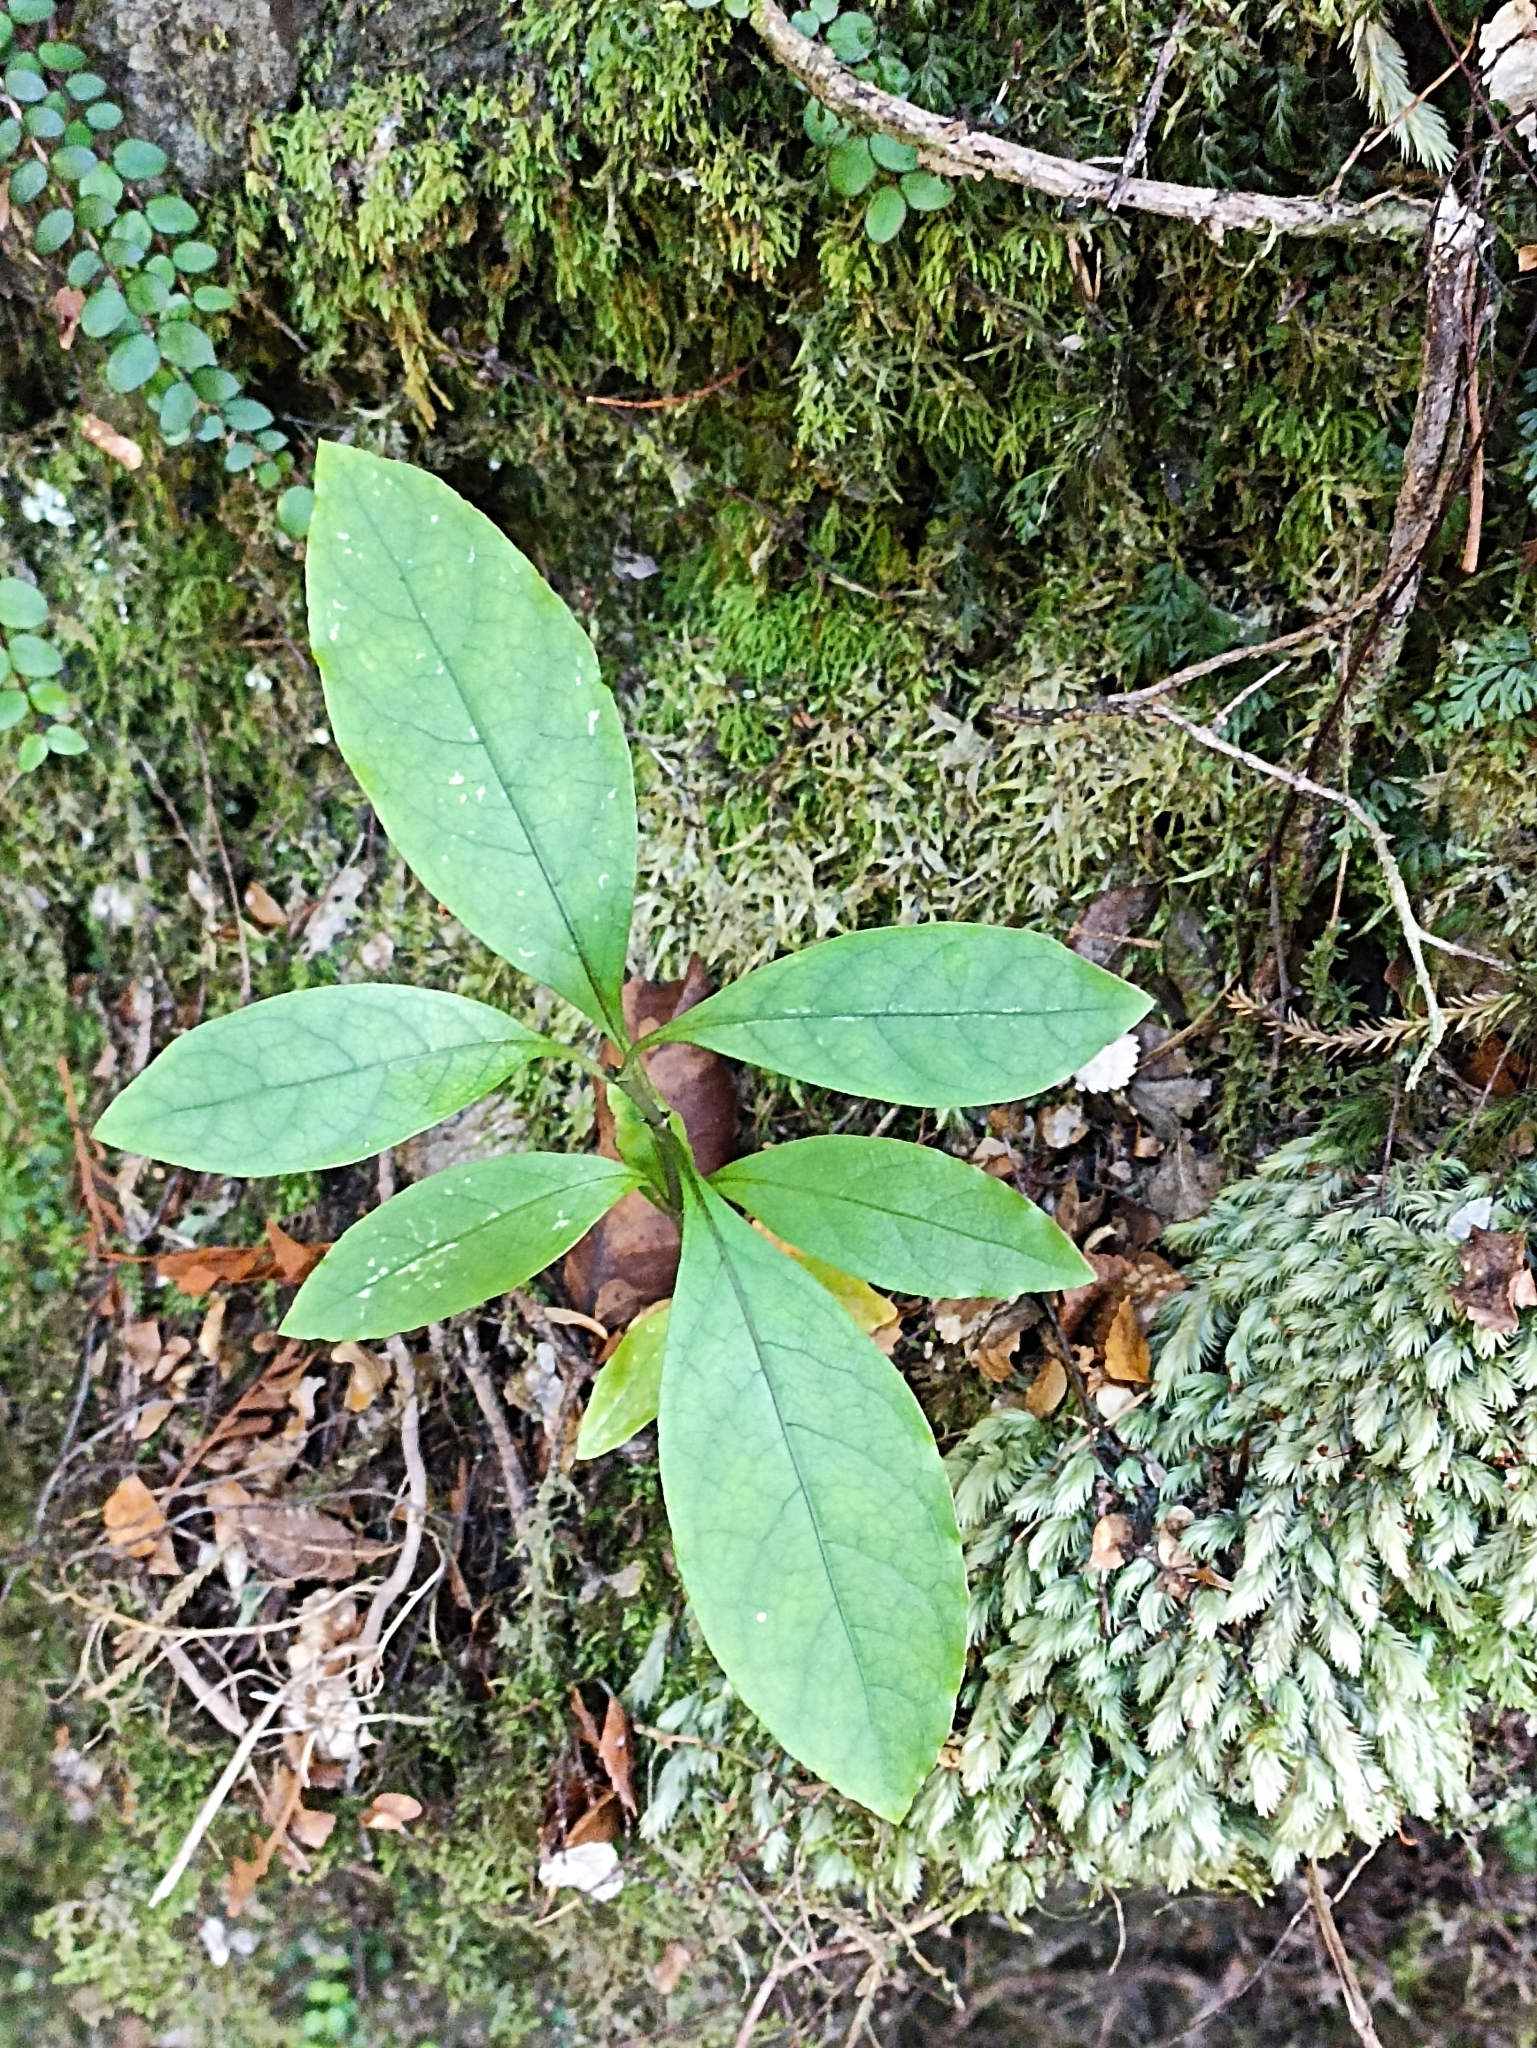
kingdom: Plantae
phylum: Tracheophyta
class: Magnoliopsida
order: Gentianales
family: Rubiaceae
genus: Coprosma
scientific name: Coprosma autumnalis
